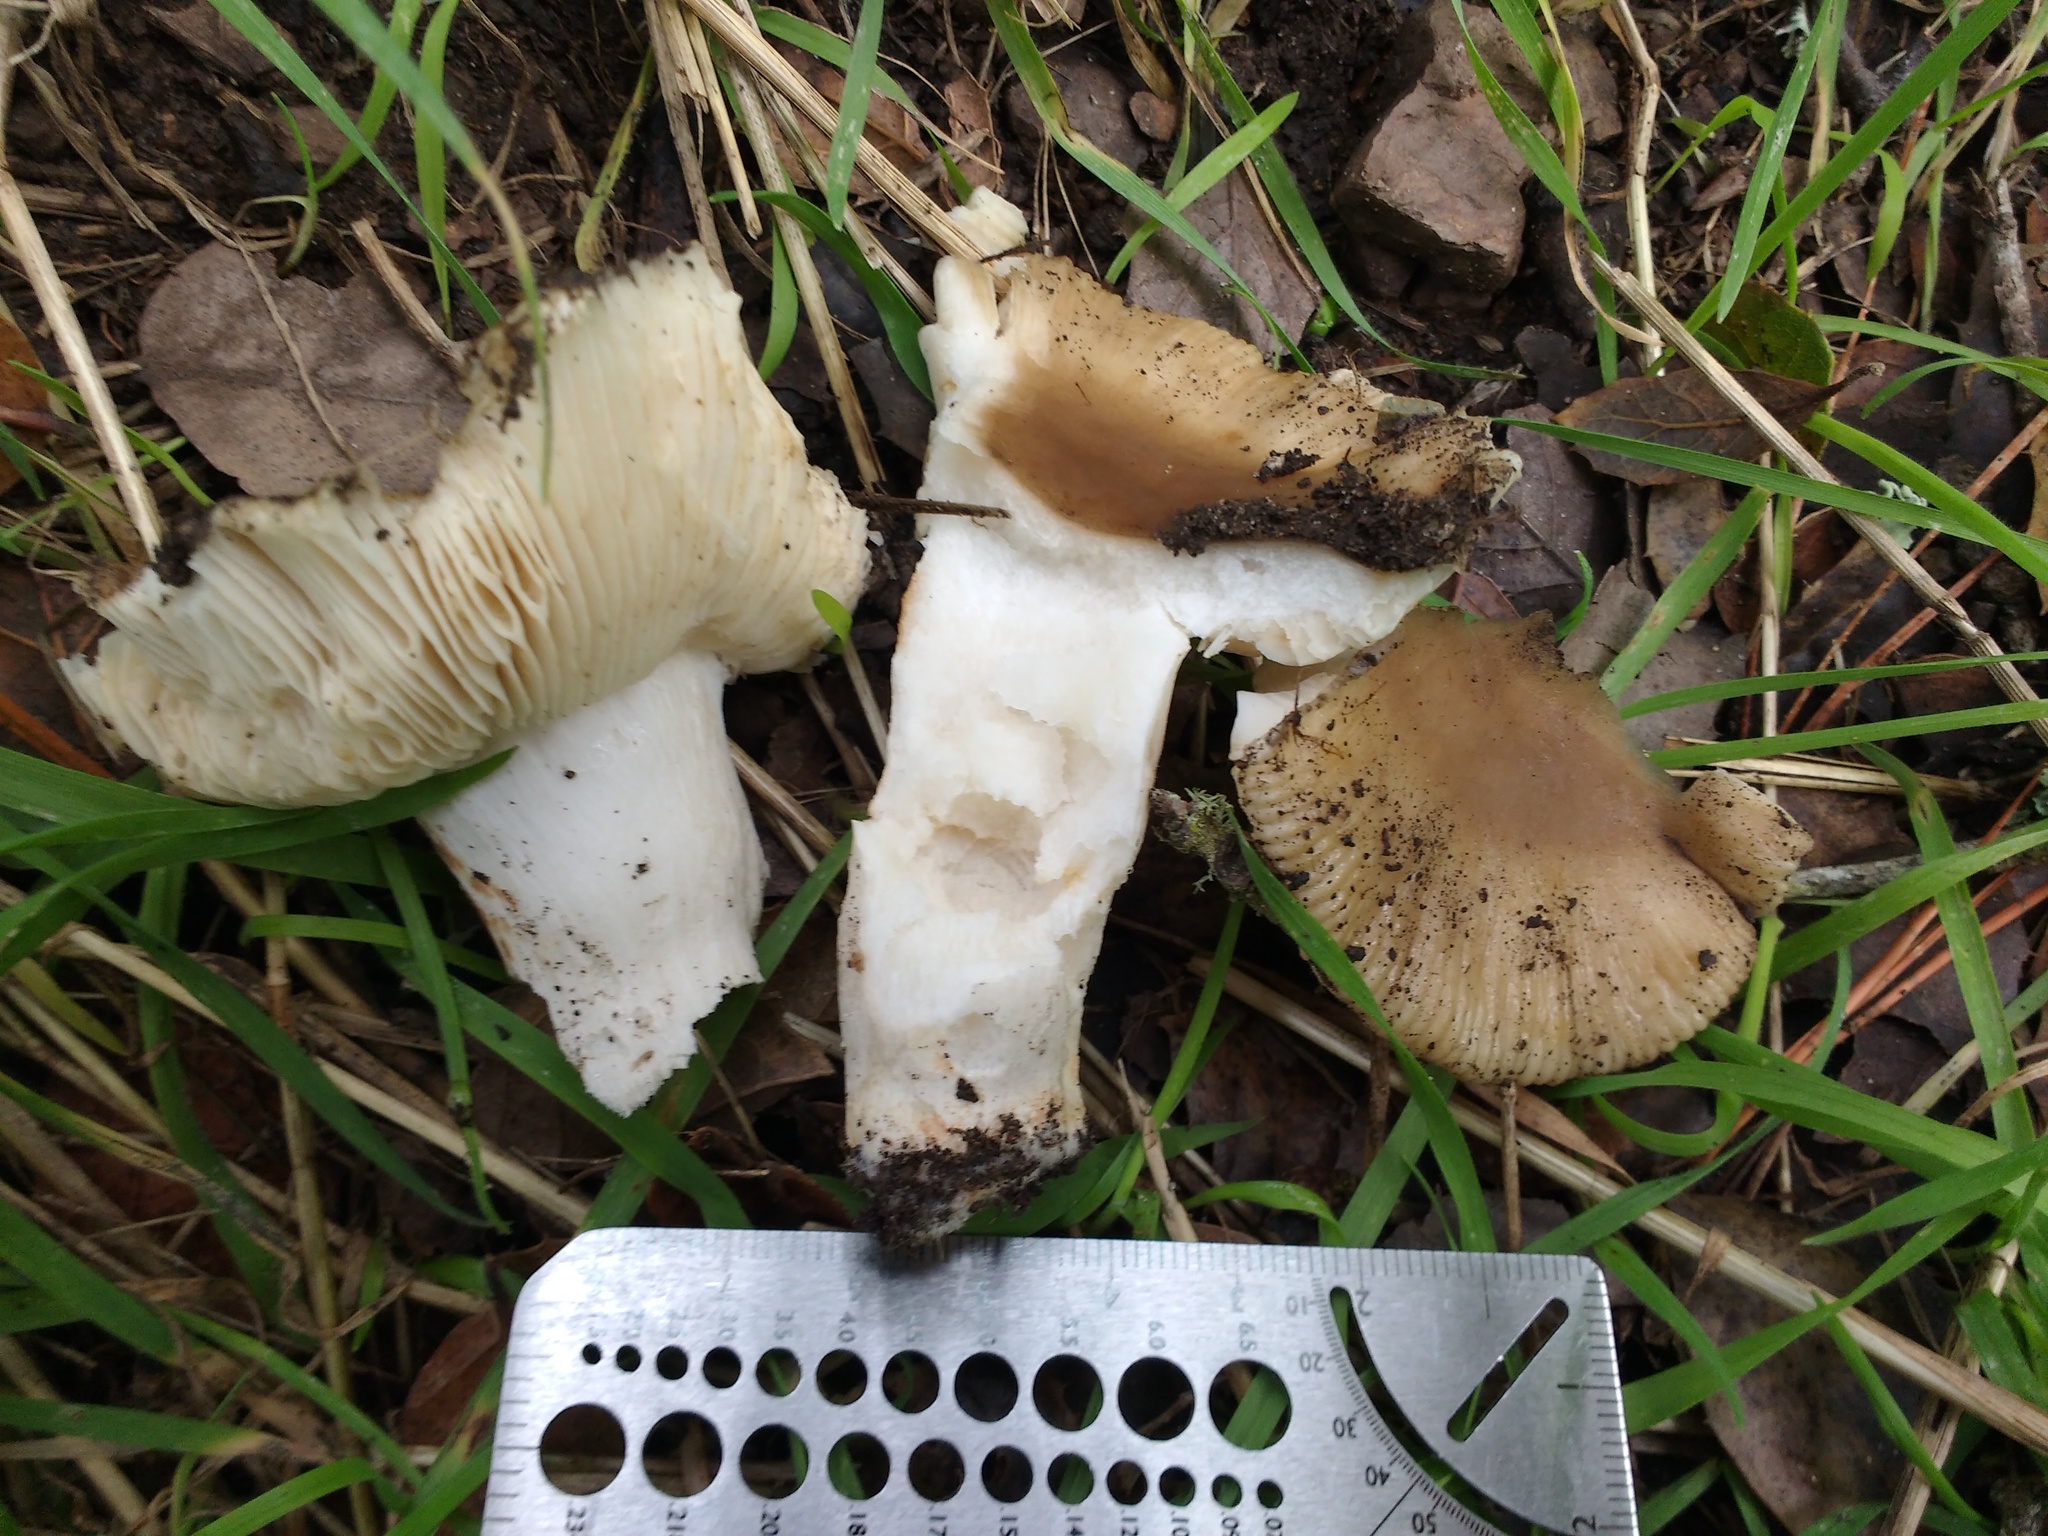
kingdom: Fungi
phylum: Basidiomycota
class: Agaricomycetes
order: Russulales
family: Russulaceae
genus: Russula
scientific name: Russula cerolens
